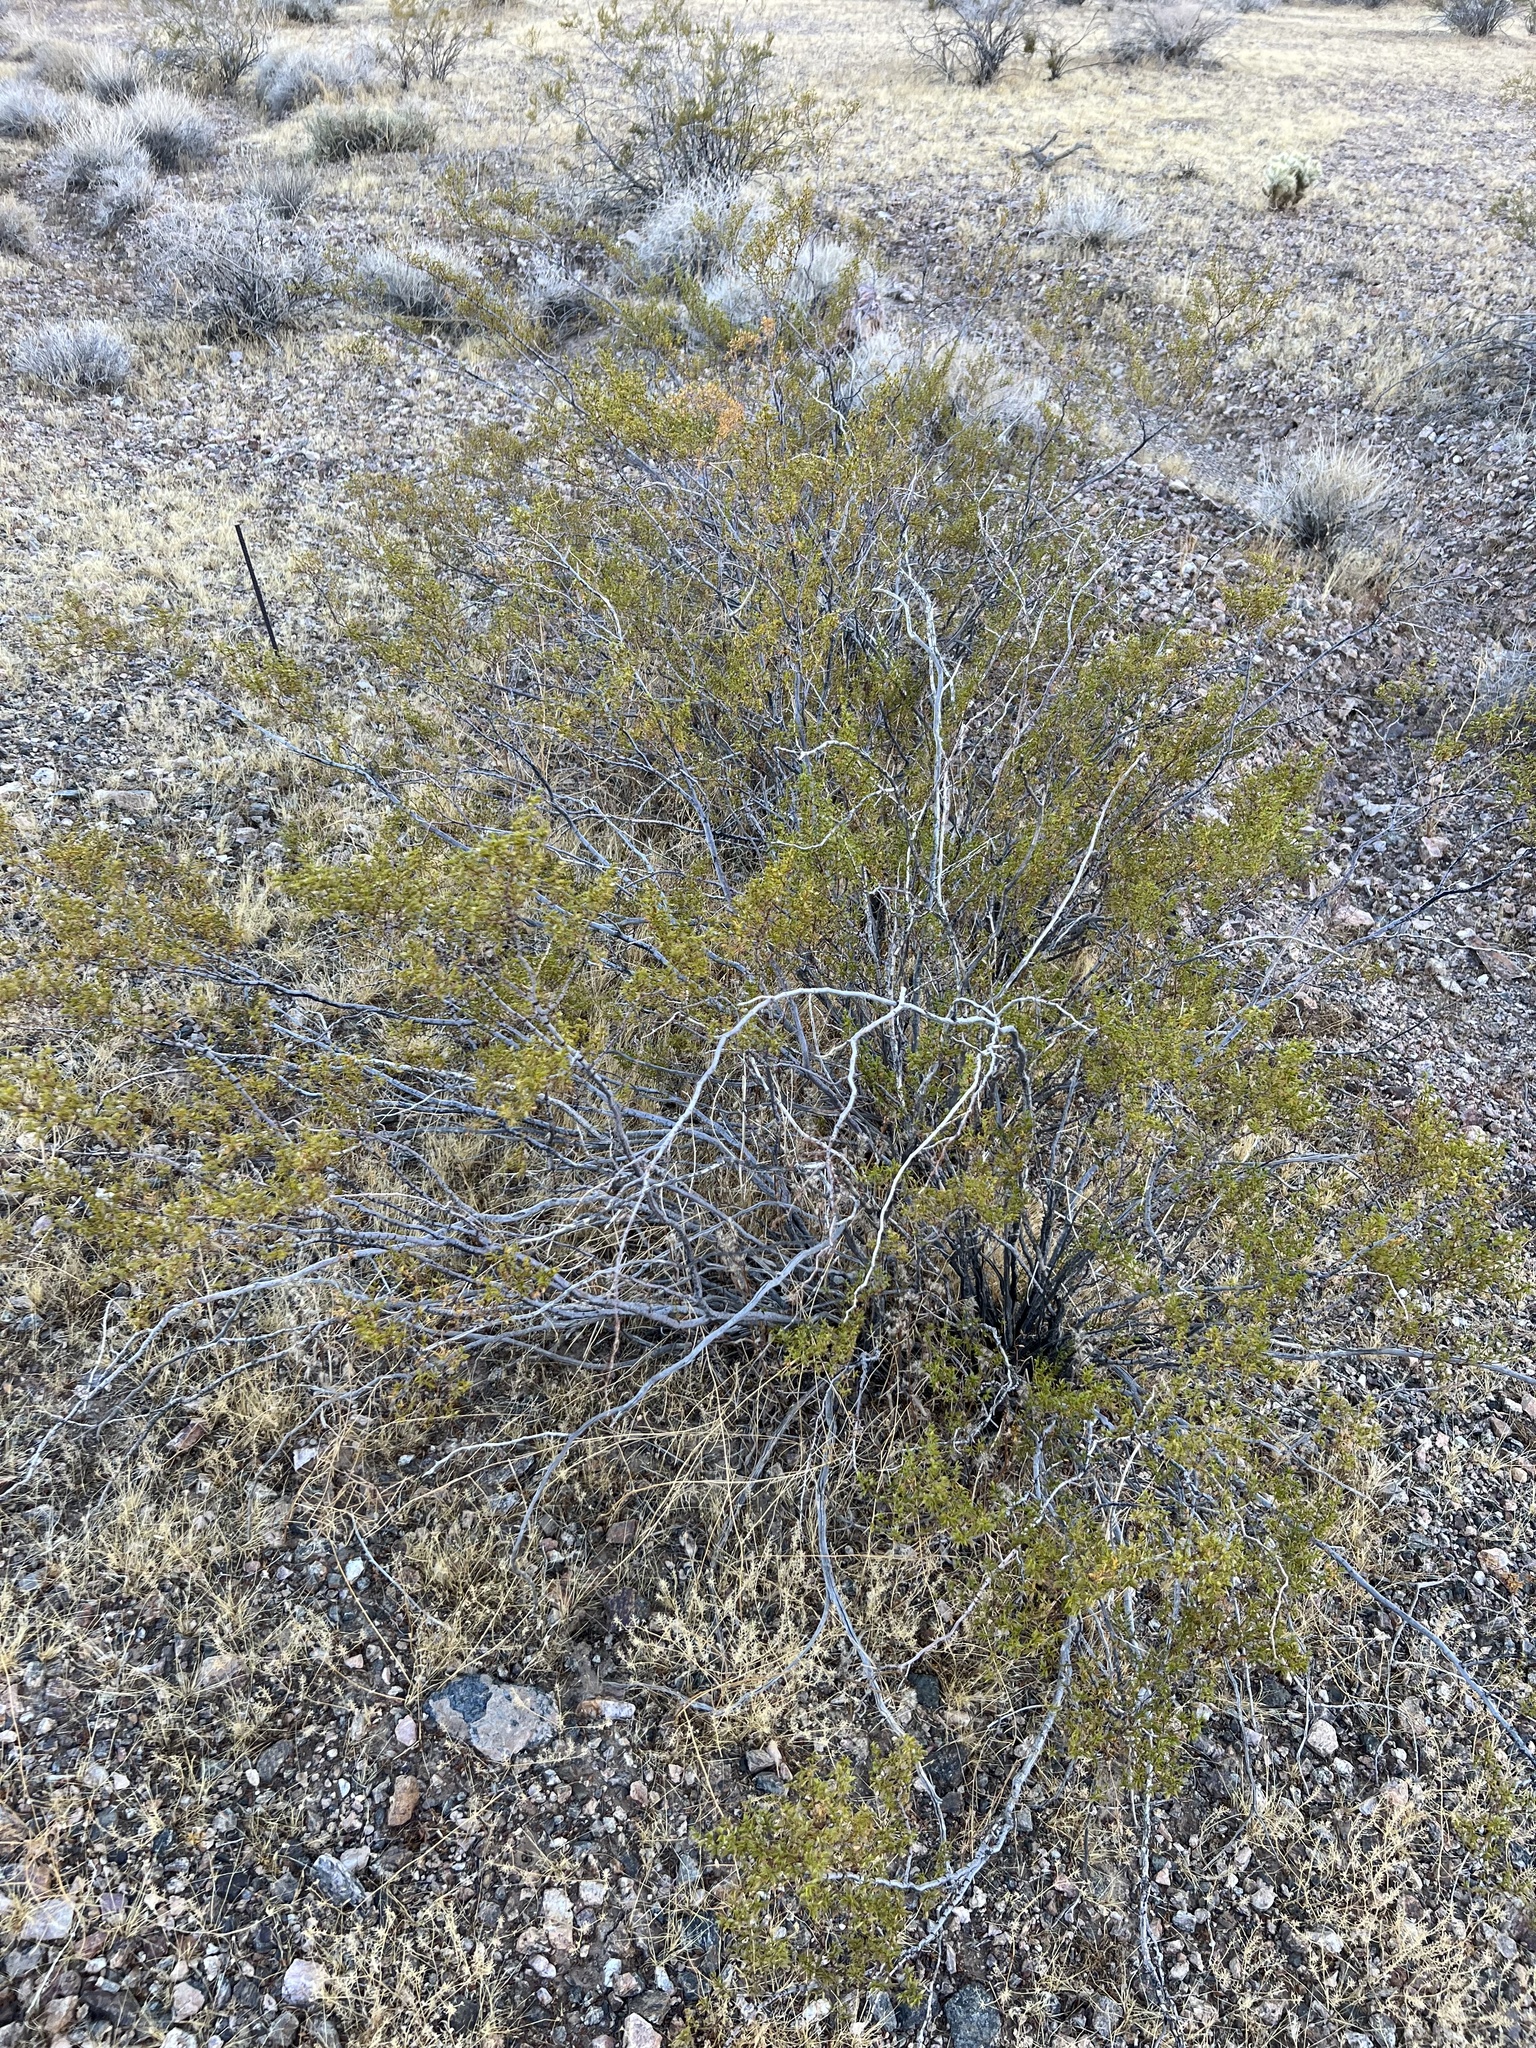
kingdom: Plantae
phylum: Tracheophyta
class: Magnoliopsida
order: Zygophyllales
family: Zygophyllaceae
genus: Larrea
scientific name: Larrea tridentata
